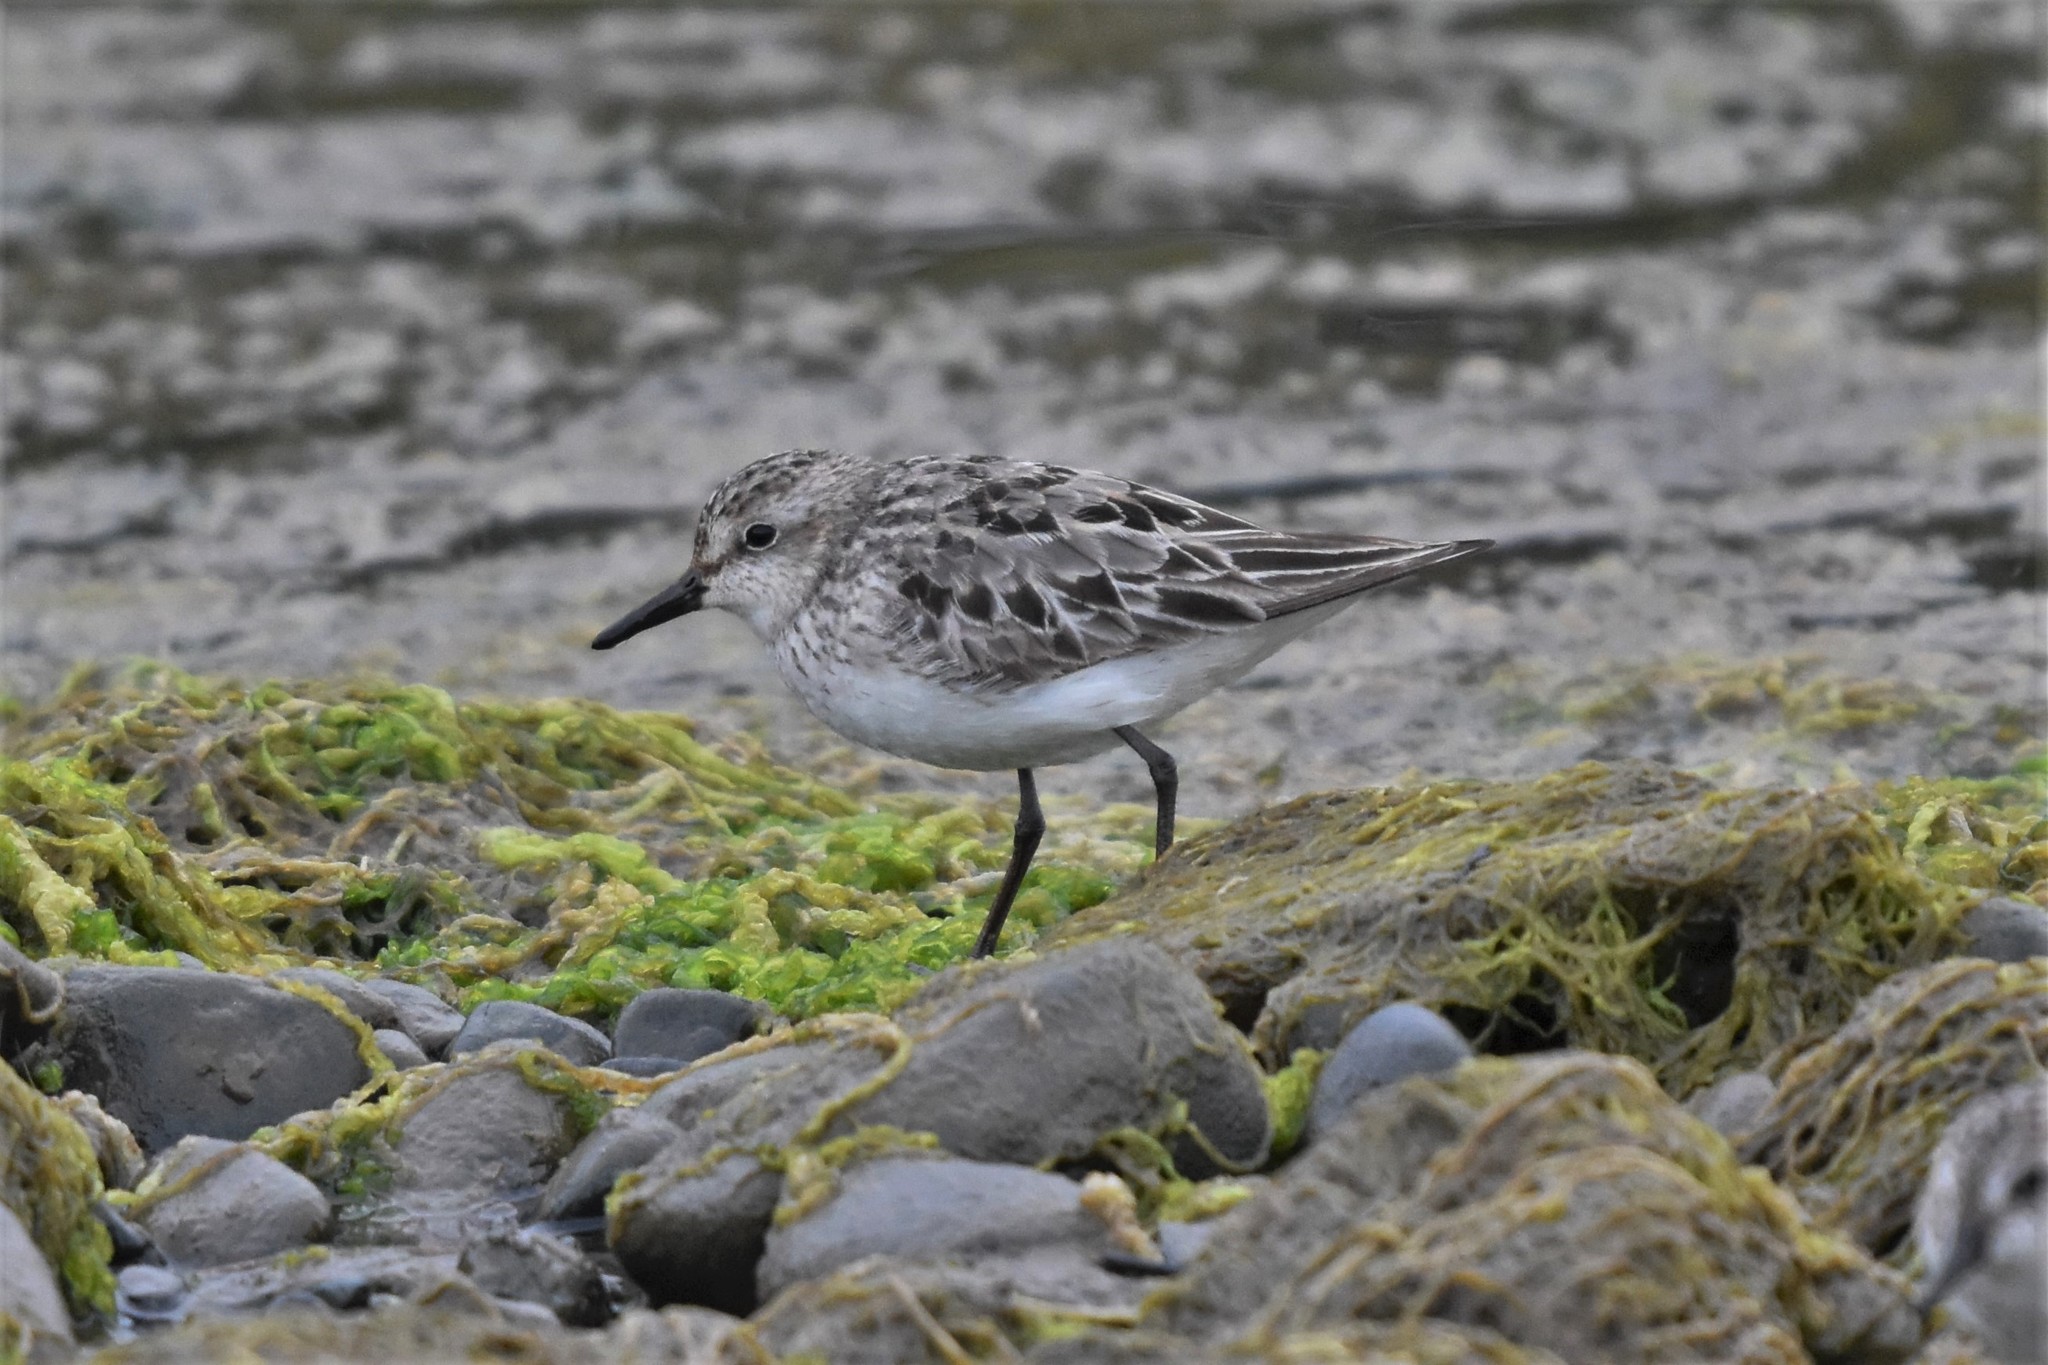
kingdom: Animalia
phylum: Chordata
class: Aves
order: Charadriiformes
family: Scolopacidae
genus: Calidris
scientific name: Calidris pusilla
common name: Semipalmated sandpiper
